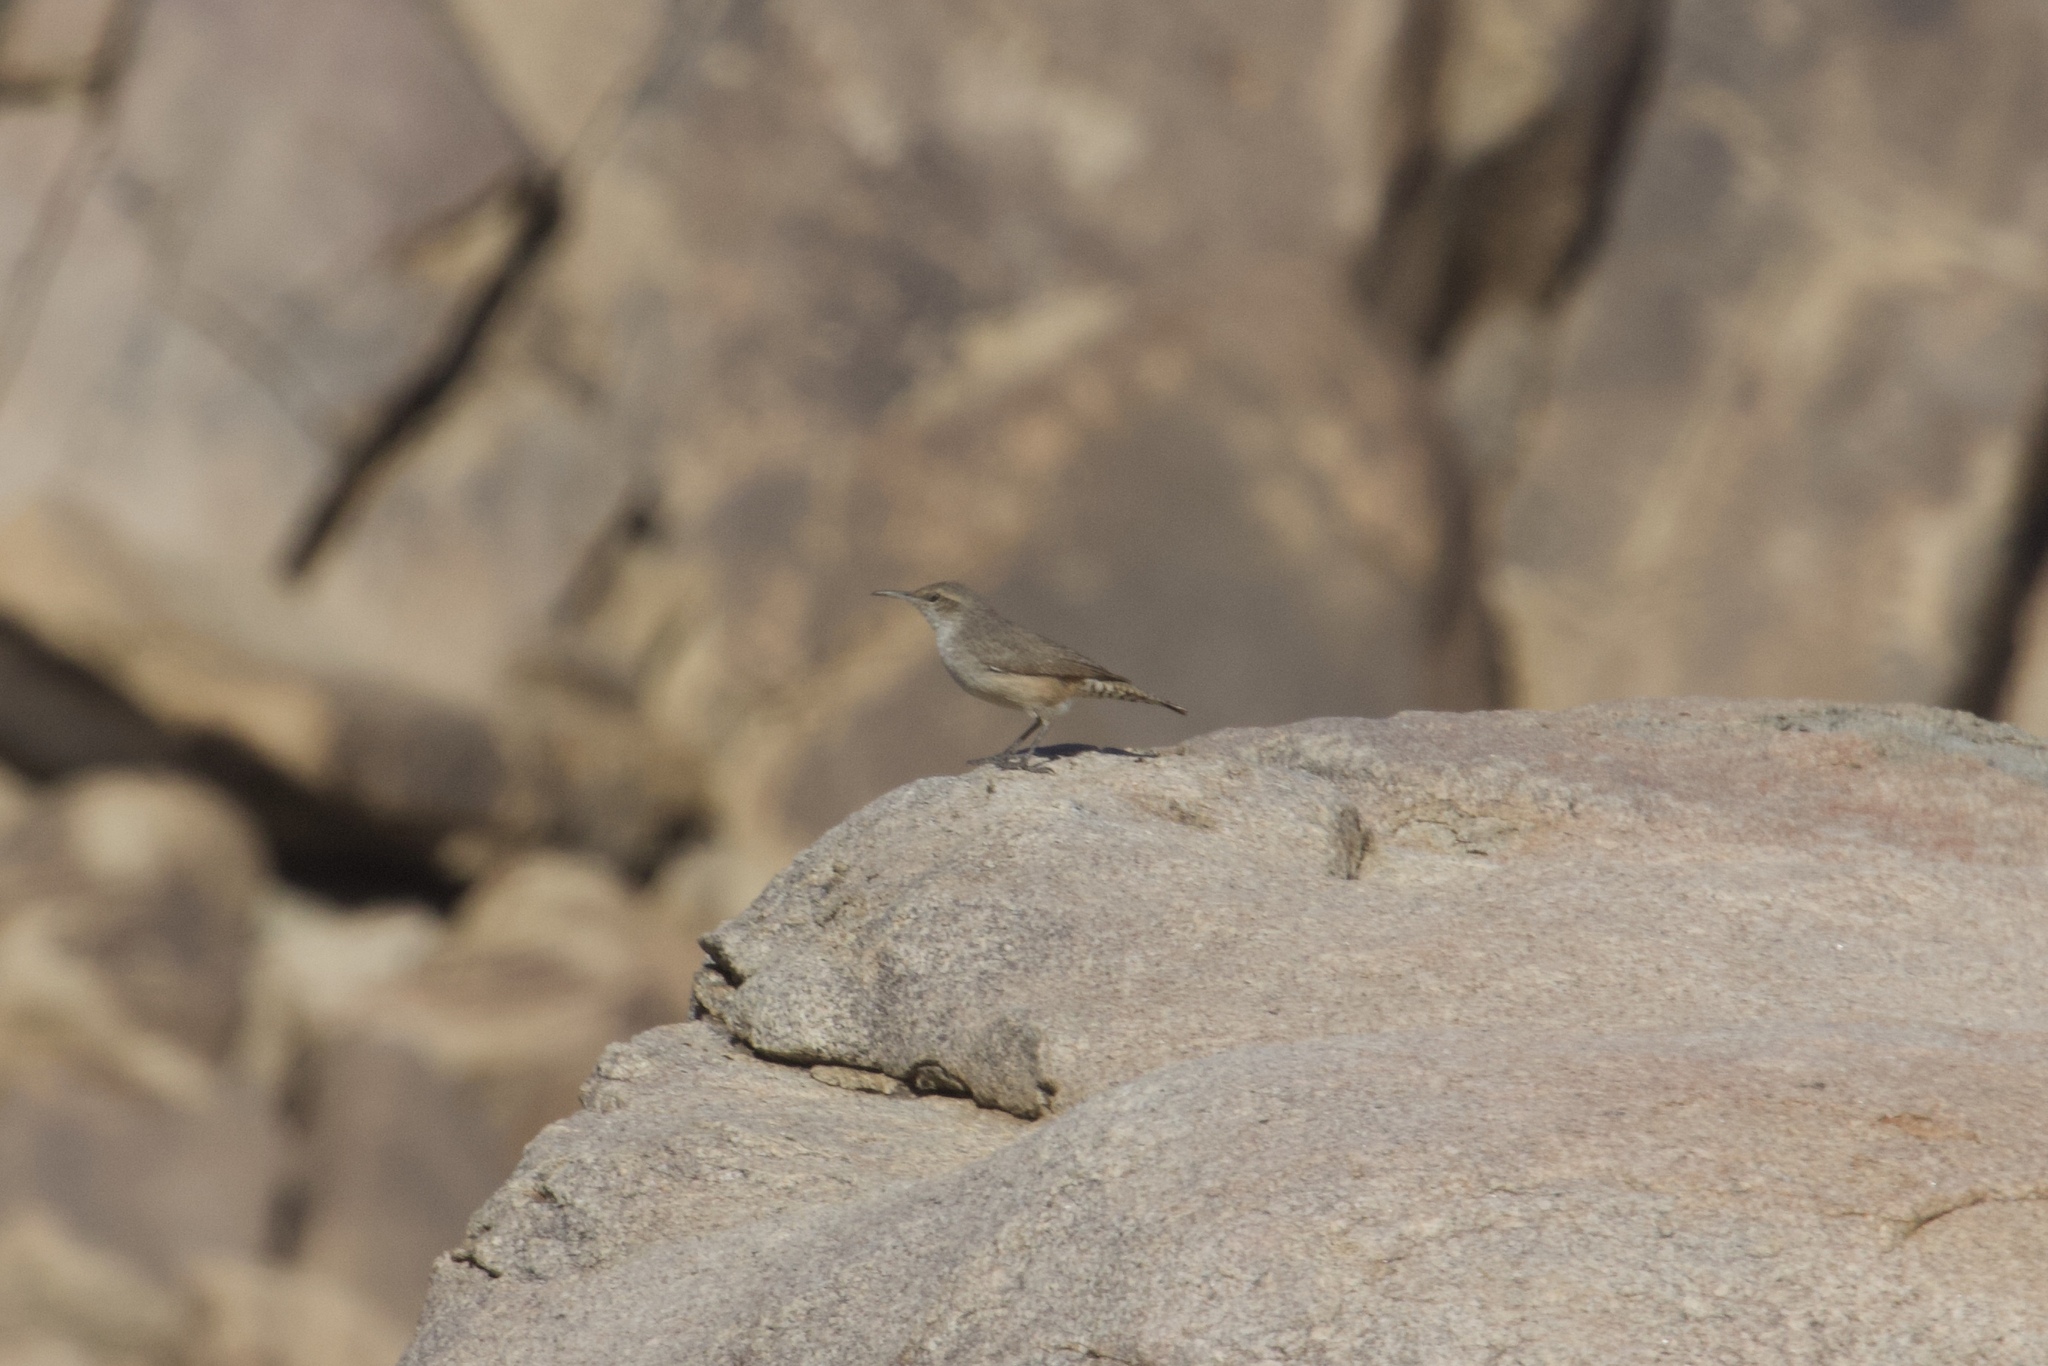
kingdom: Animalia
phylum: Chordata
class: Aves
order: Passeriformes
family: Troglodytidae
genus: Salpinctes
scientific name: Salpinctes obsoletus
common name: Rock wren
